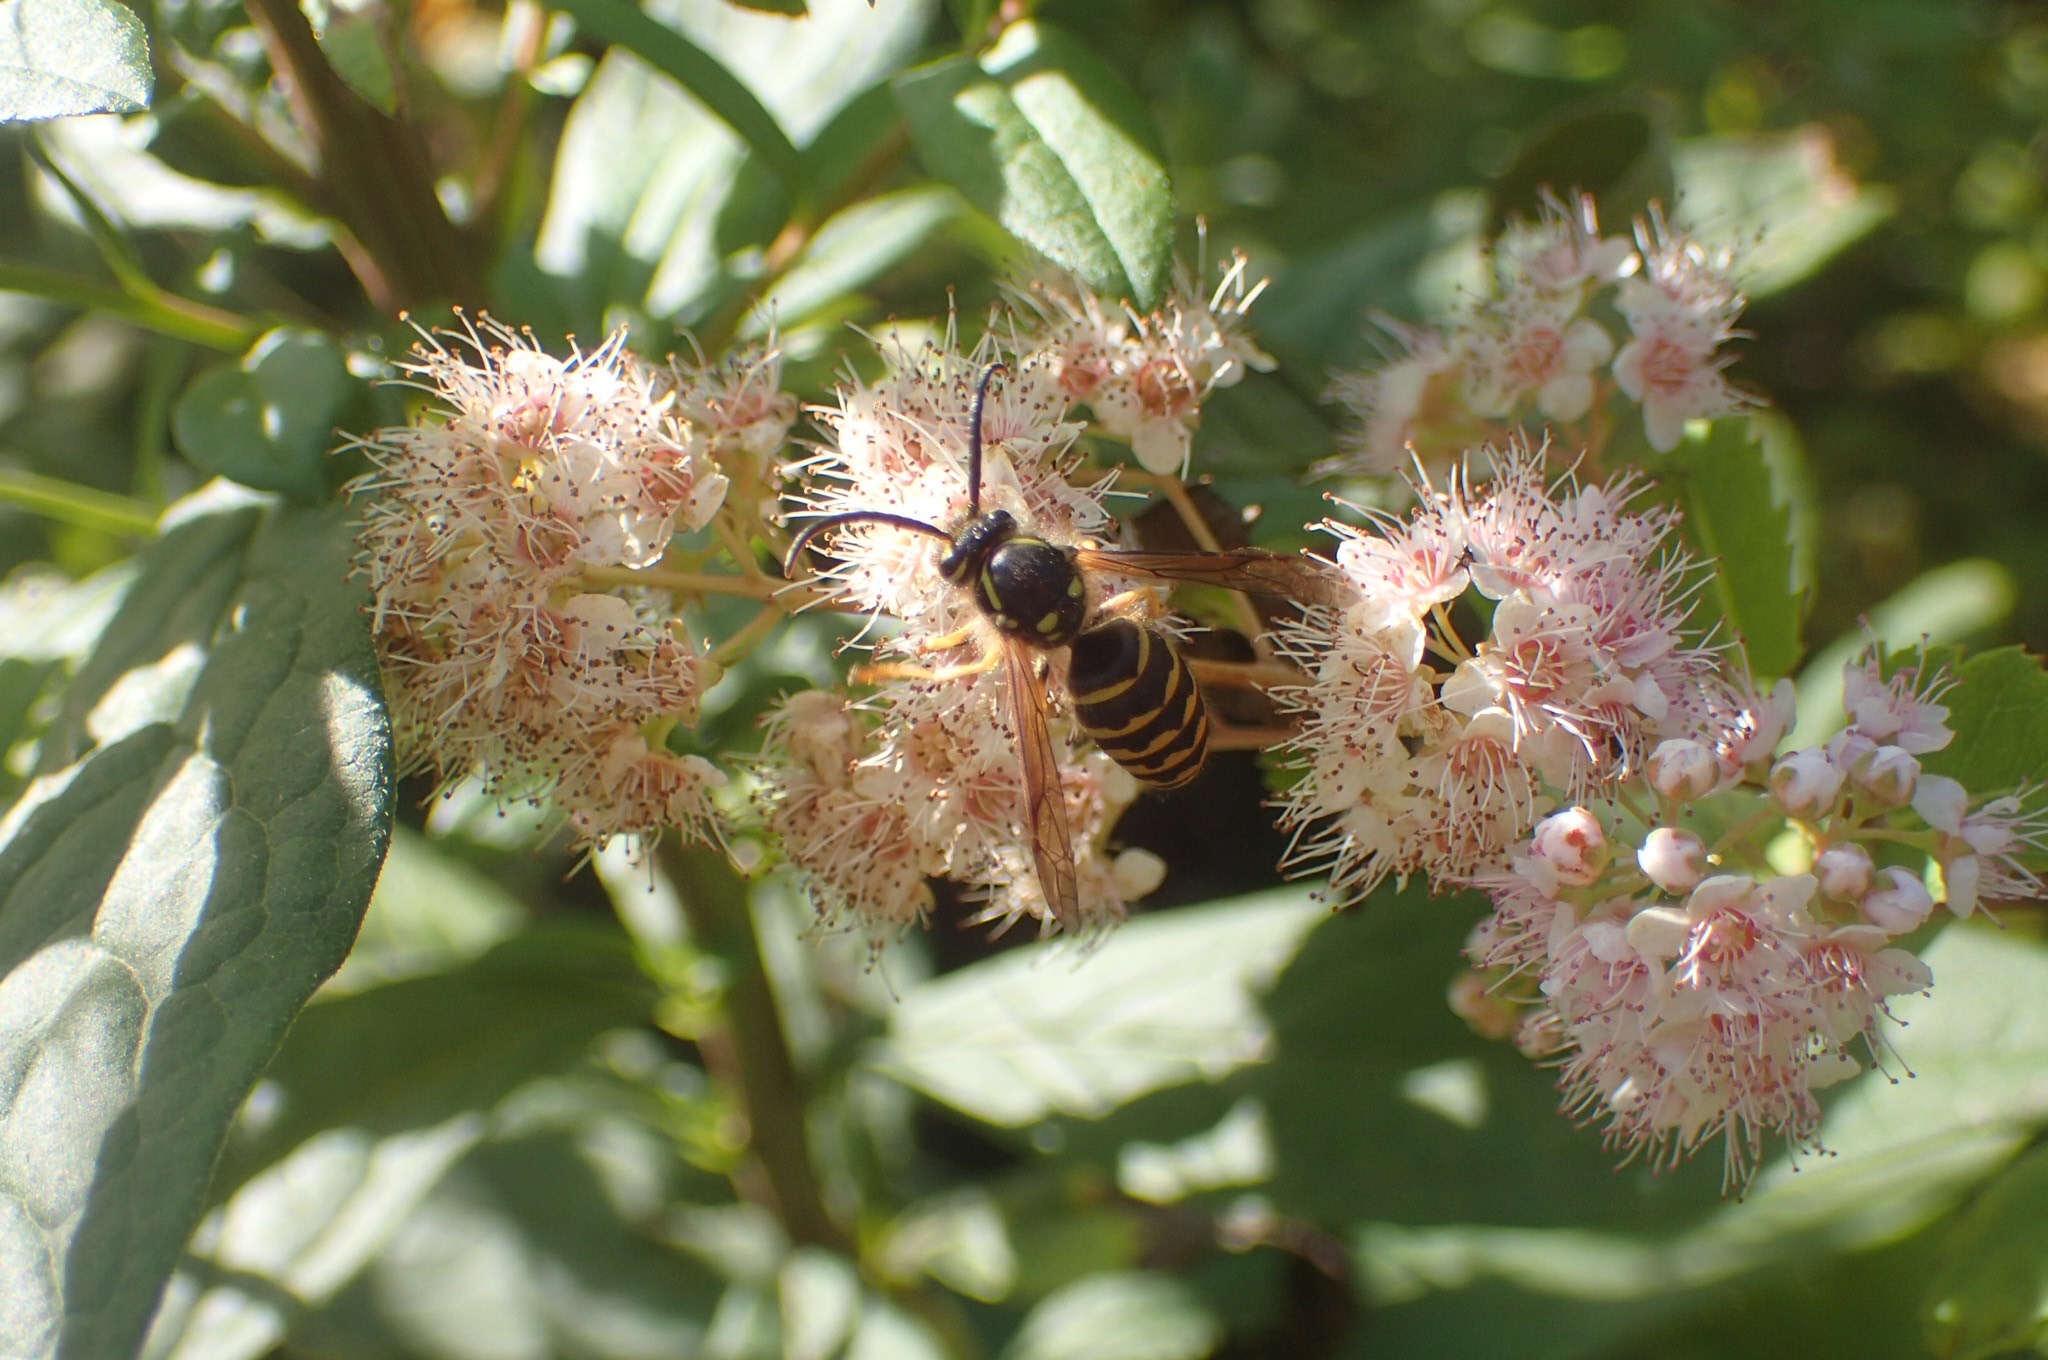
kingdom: Animalia
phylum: Arthropoda
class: Insecta
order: Hymenoptera
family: Vespidae
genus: Dolichovespula
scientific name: Dolichovespula arenaria
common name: Aerial yellowjacket
